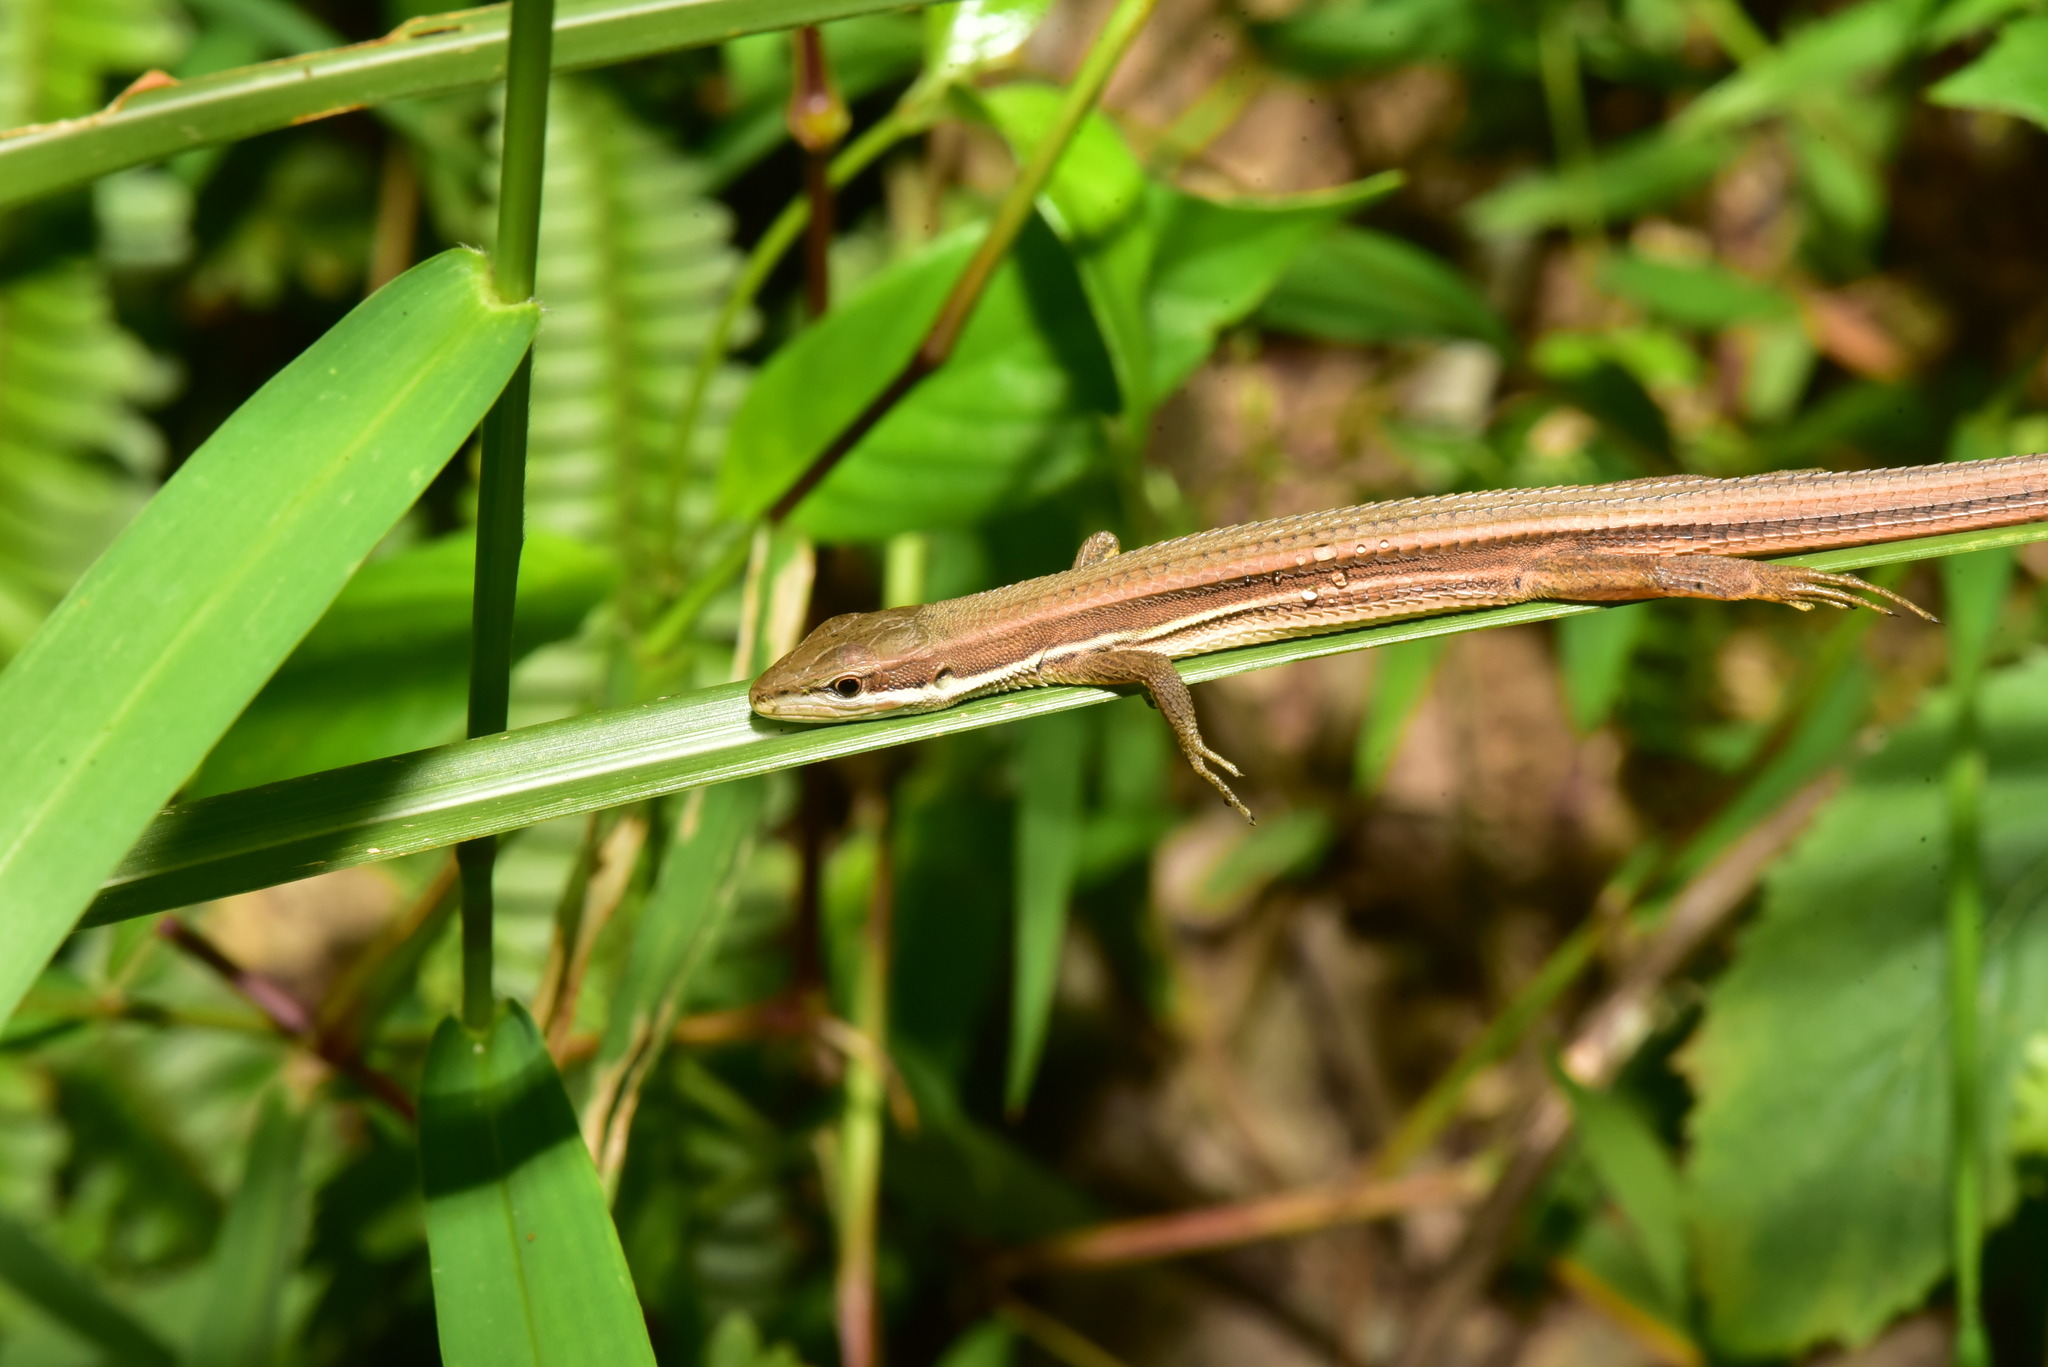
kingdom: Animalia
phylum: Chordata
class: Squamata
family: Lacertidae
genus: Takydromus
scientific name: Takydromus viridipunctatus
